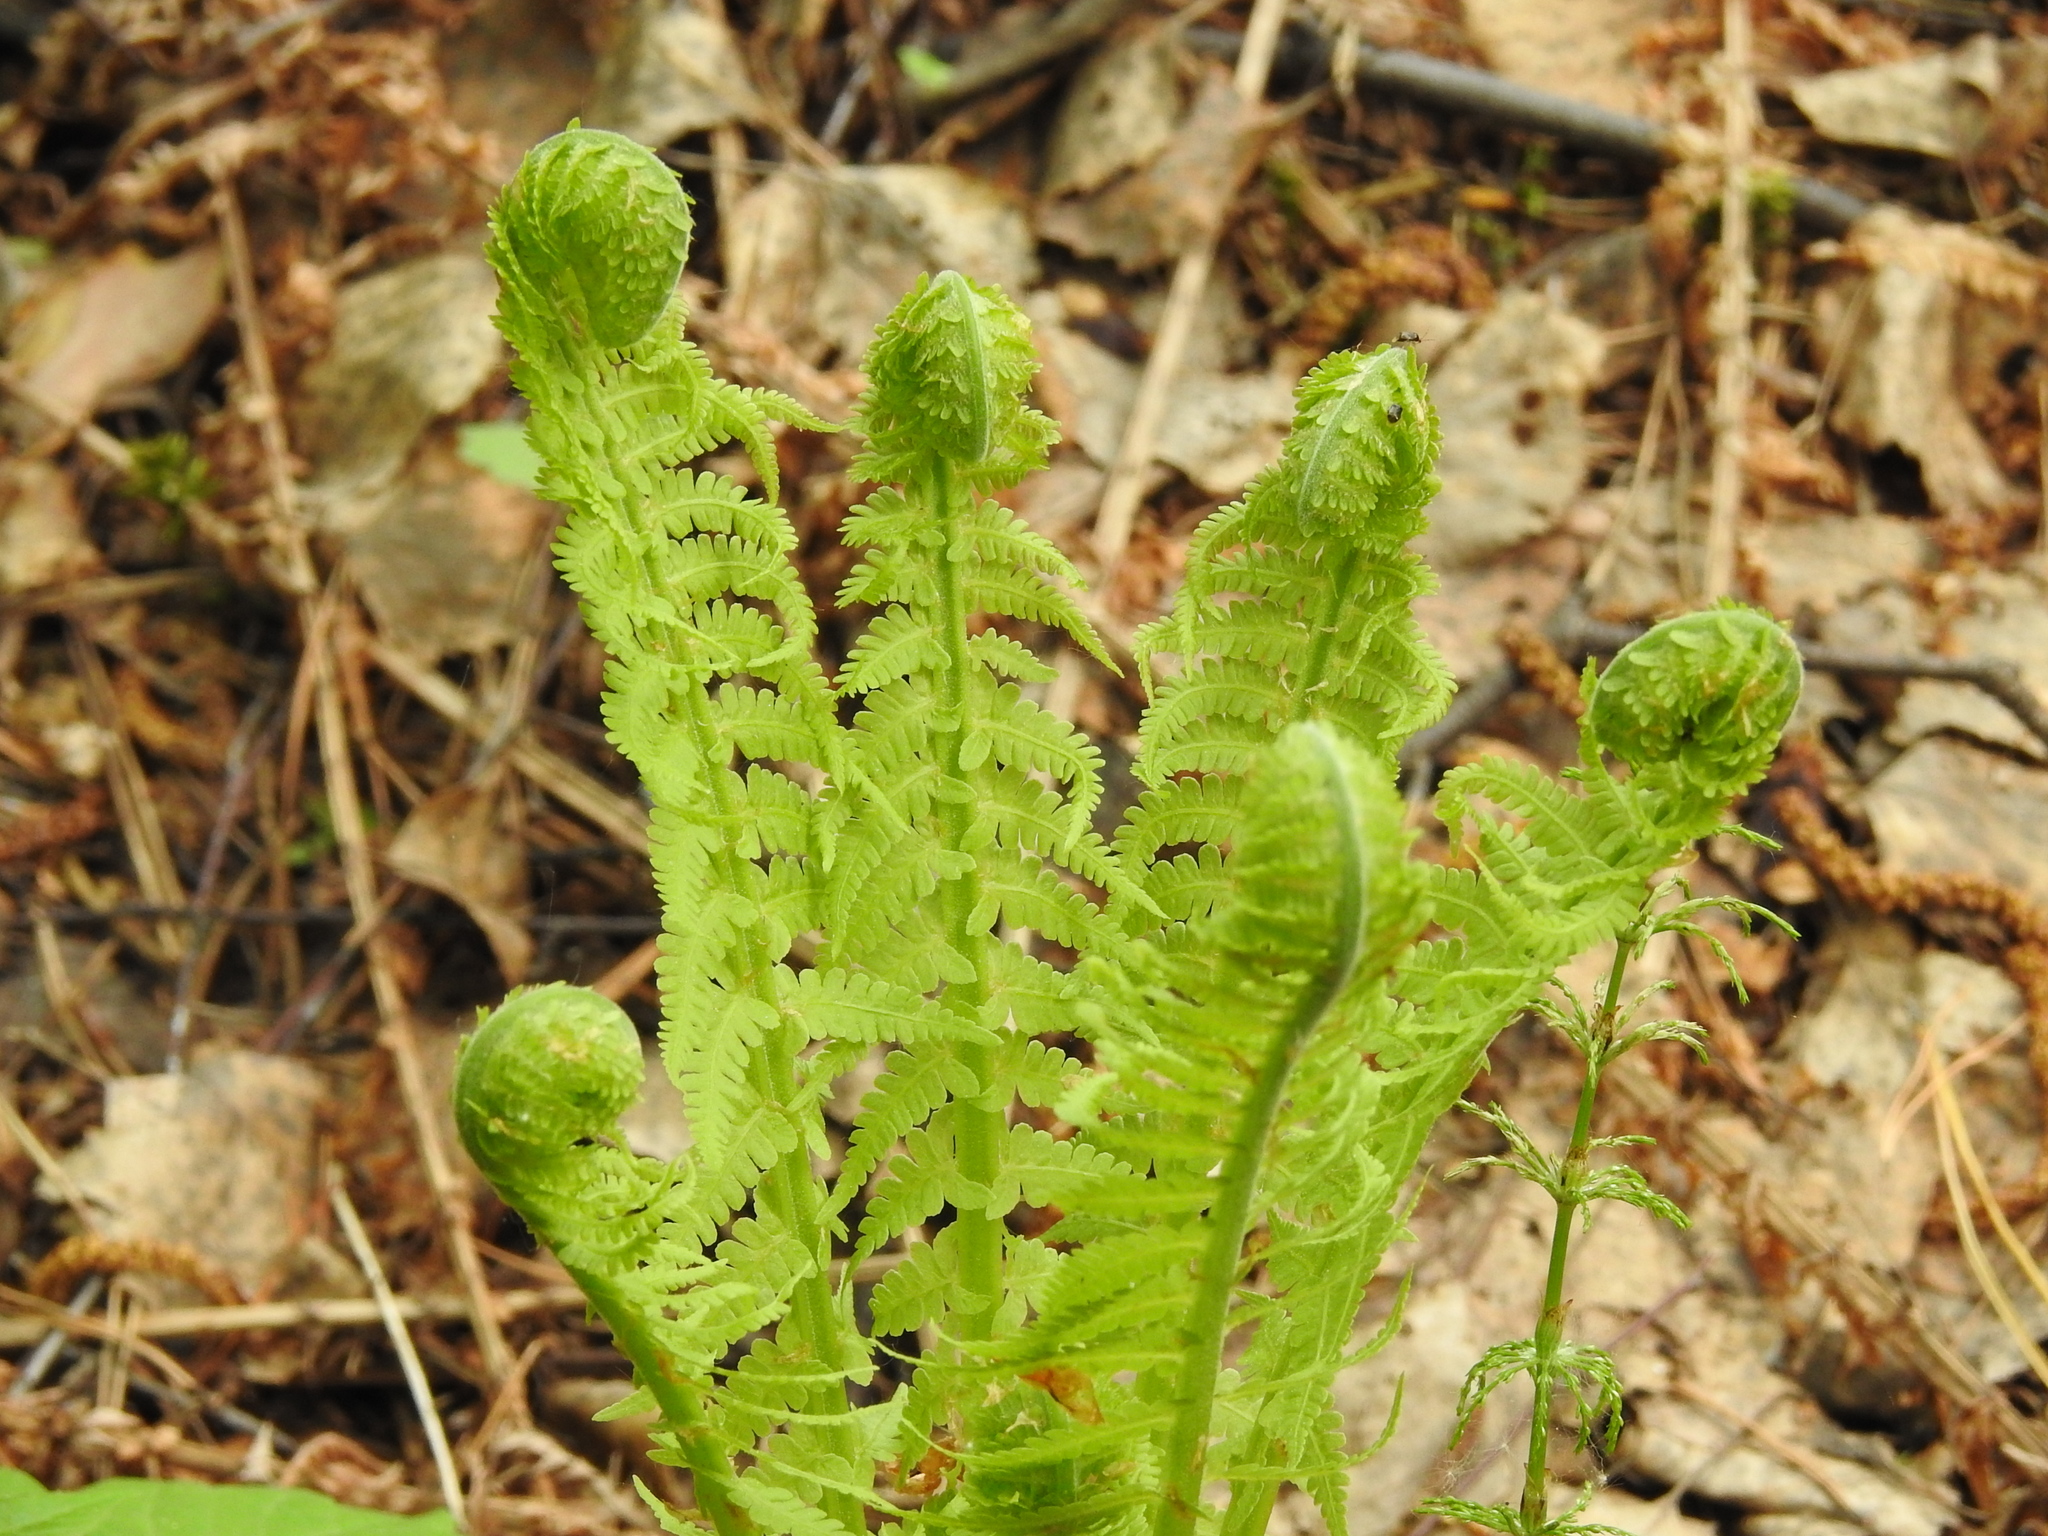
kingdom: Plantae
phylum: Tracheophyta
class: Polypodiopsida
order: Polypodiales
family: Onocleaceae
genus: Matteuccia
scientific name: Matteuccia struthiopteris
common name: Ostrich fern
